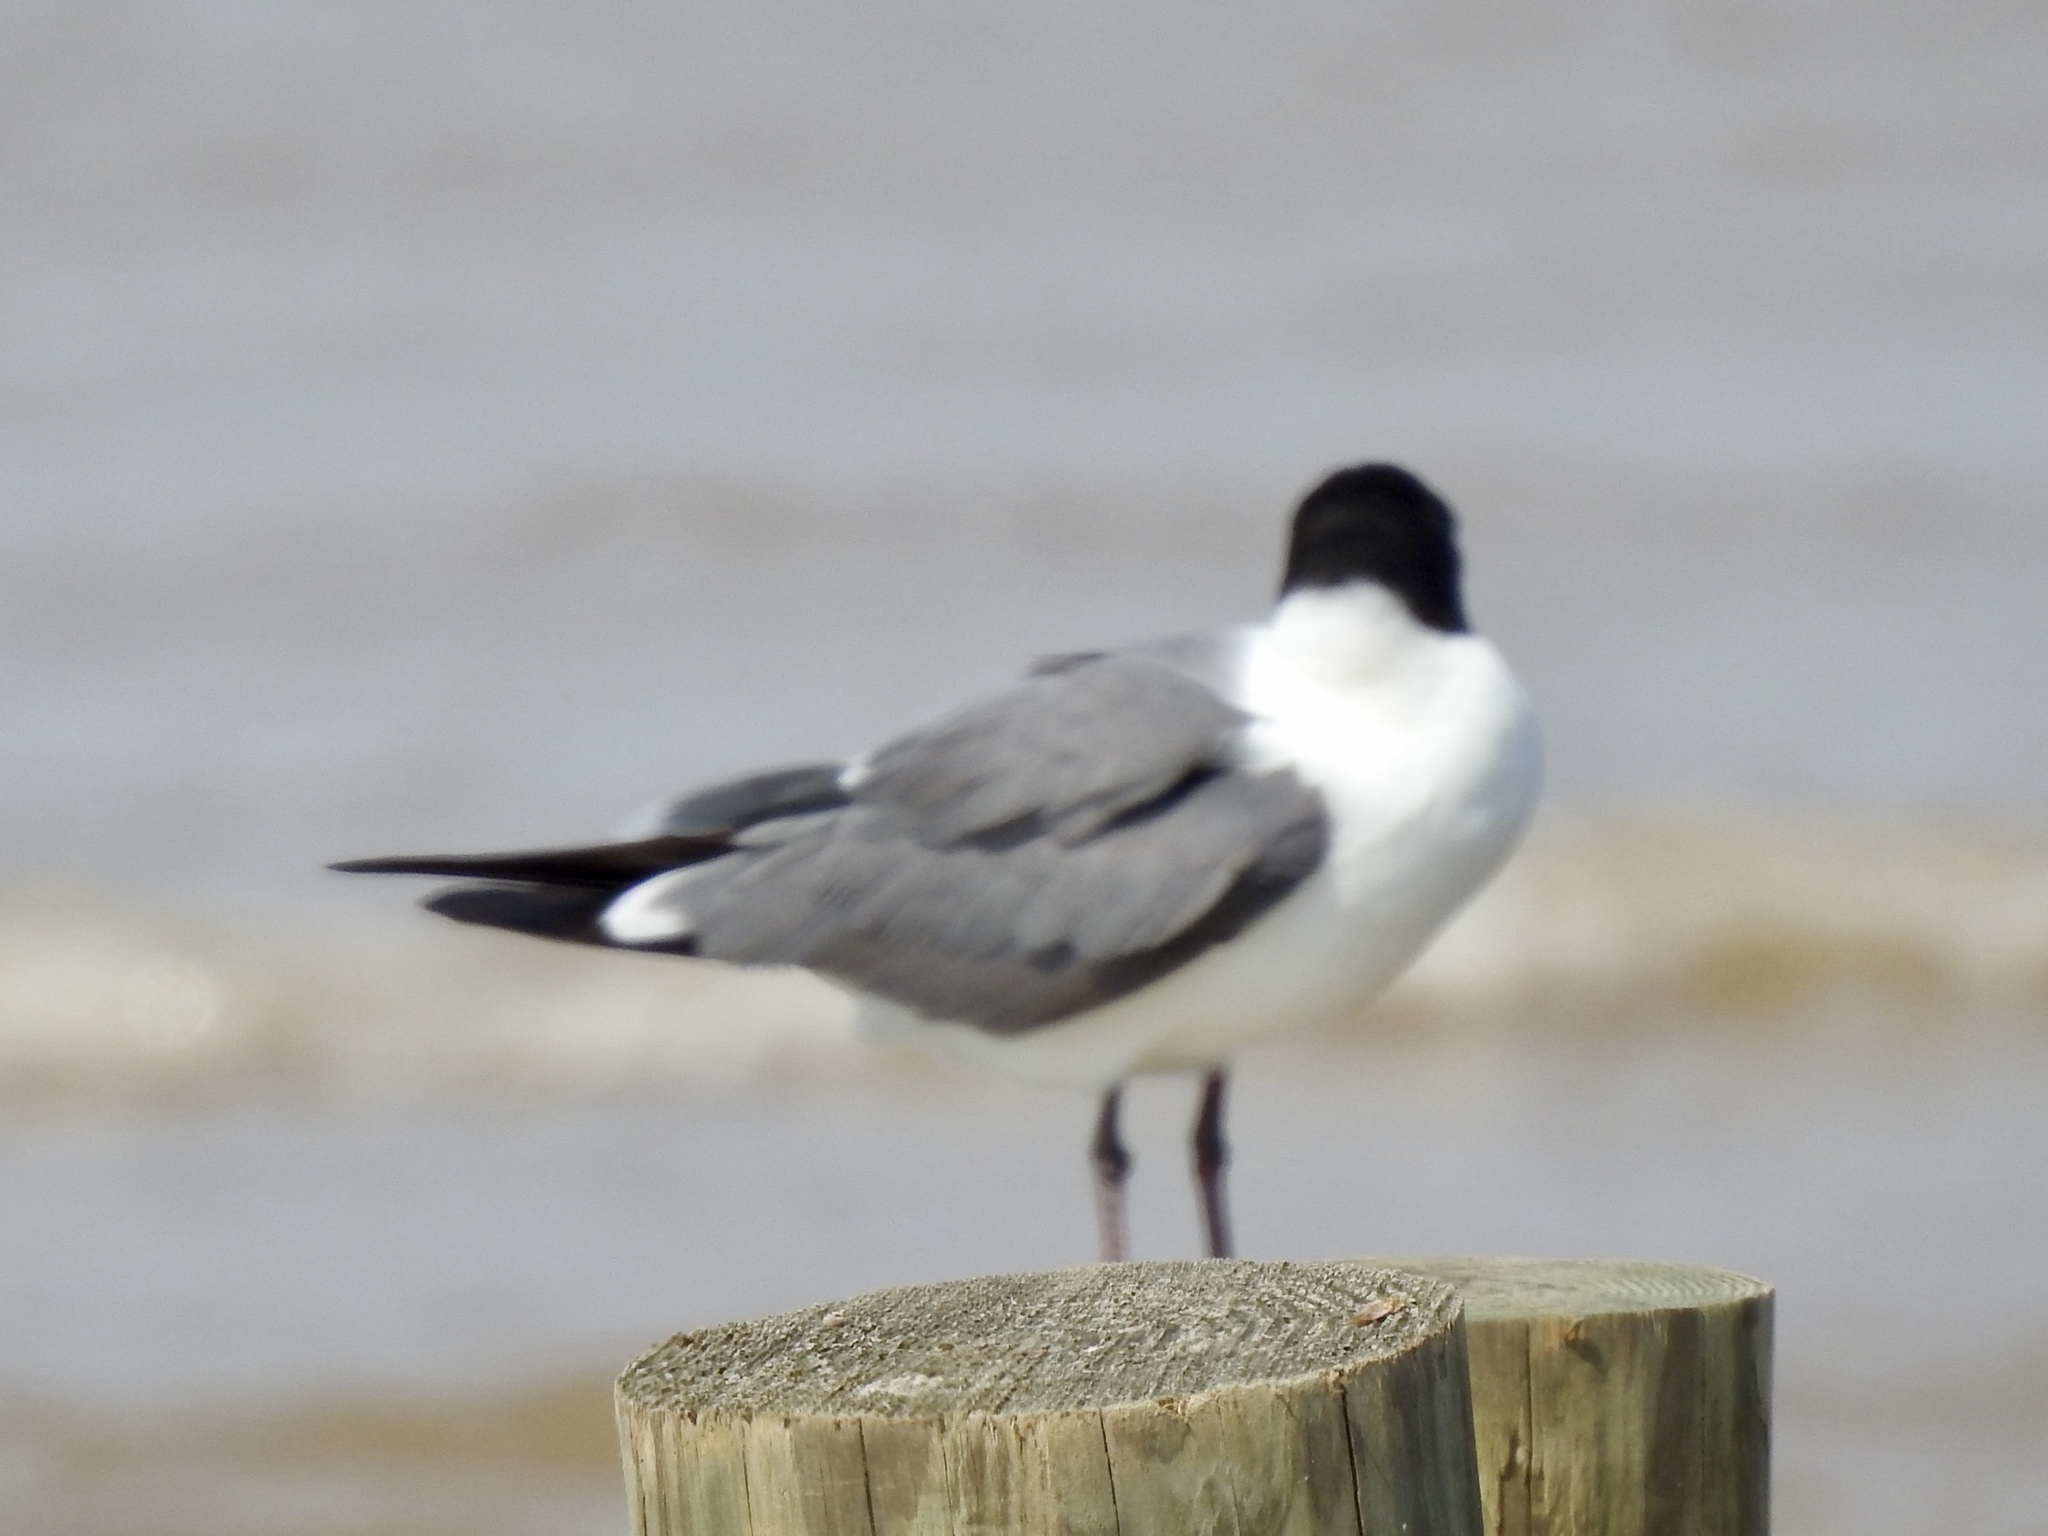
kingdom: Animalia
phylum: Chordata
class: Aves
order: Charadriiformes
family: Laridae
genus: Leucophaeus
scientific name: Leucophaeus atricilla
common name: Laughing gull
